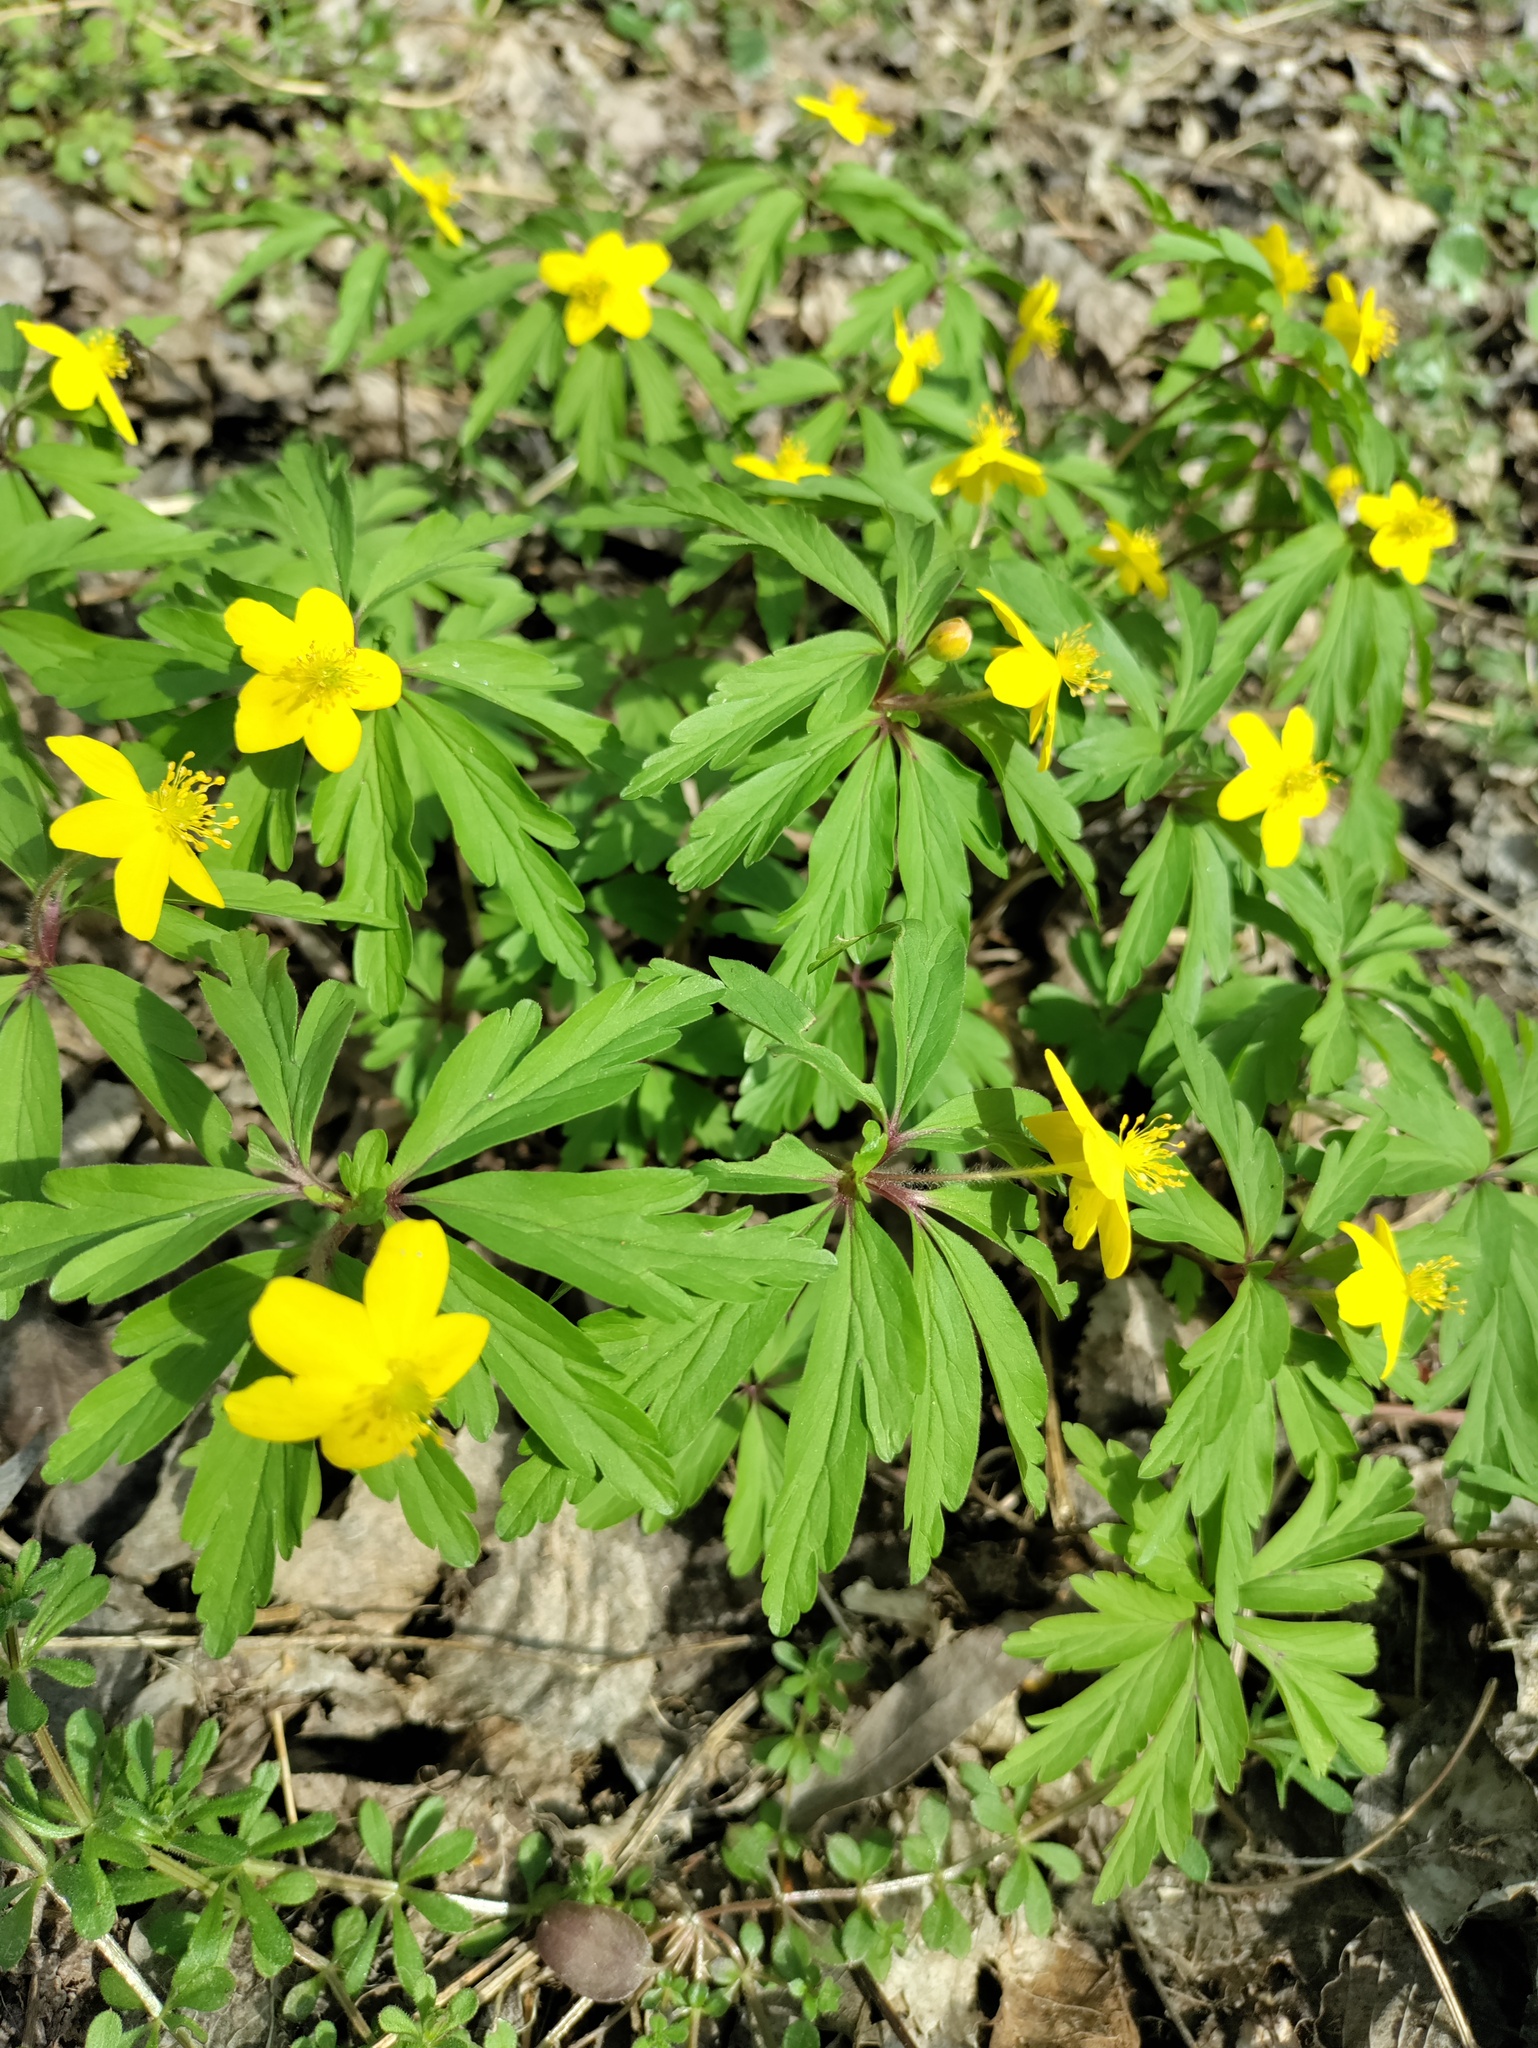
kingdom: Plantae
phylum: Tracheophyta
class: Magnoliopsida
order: Ranunculales
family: Ranunculaceae
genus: Anemone
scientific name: Anemone ranunculoides
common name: Yellow anemone
